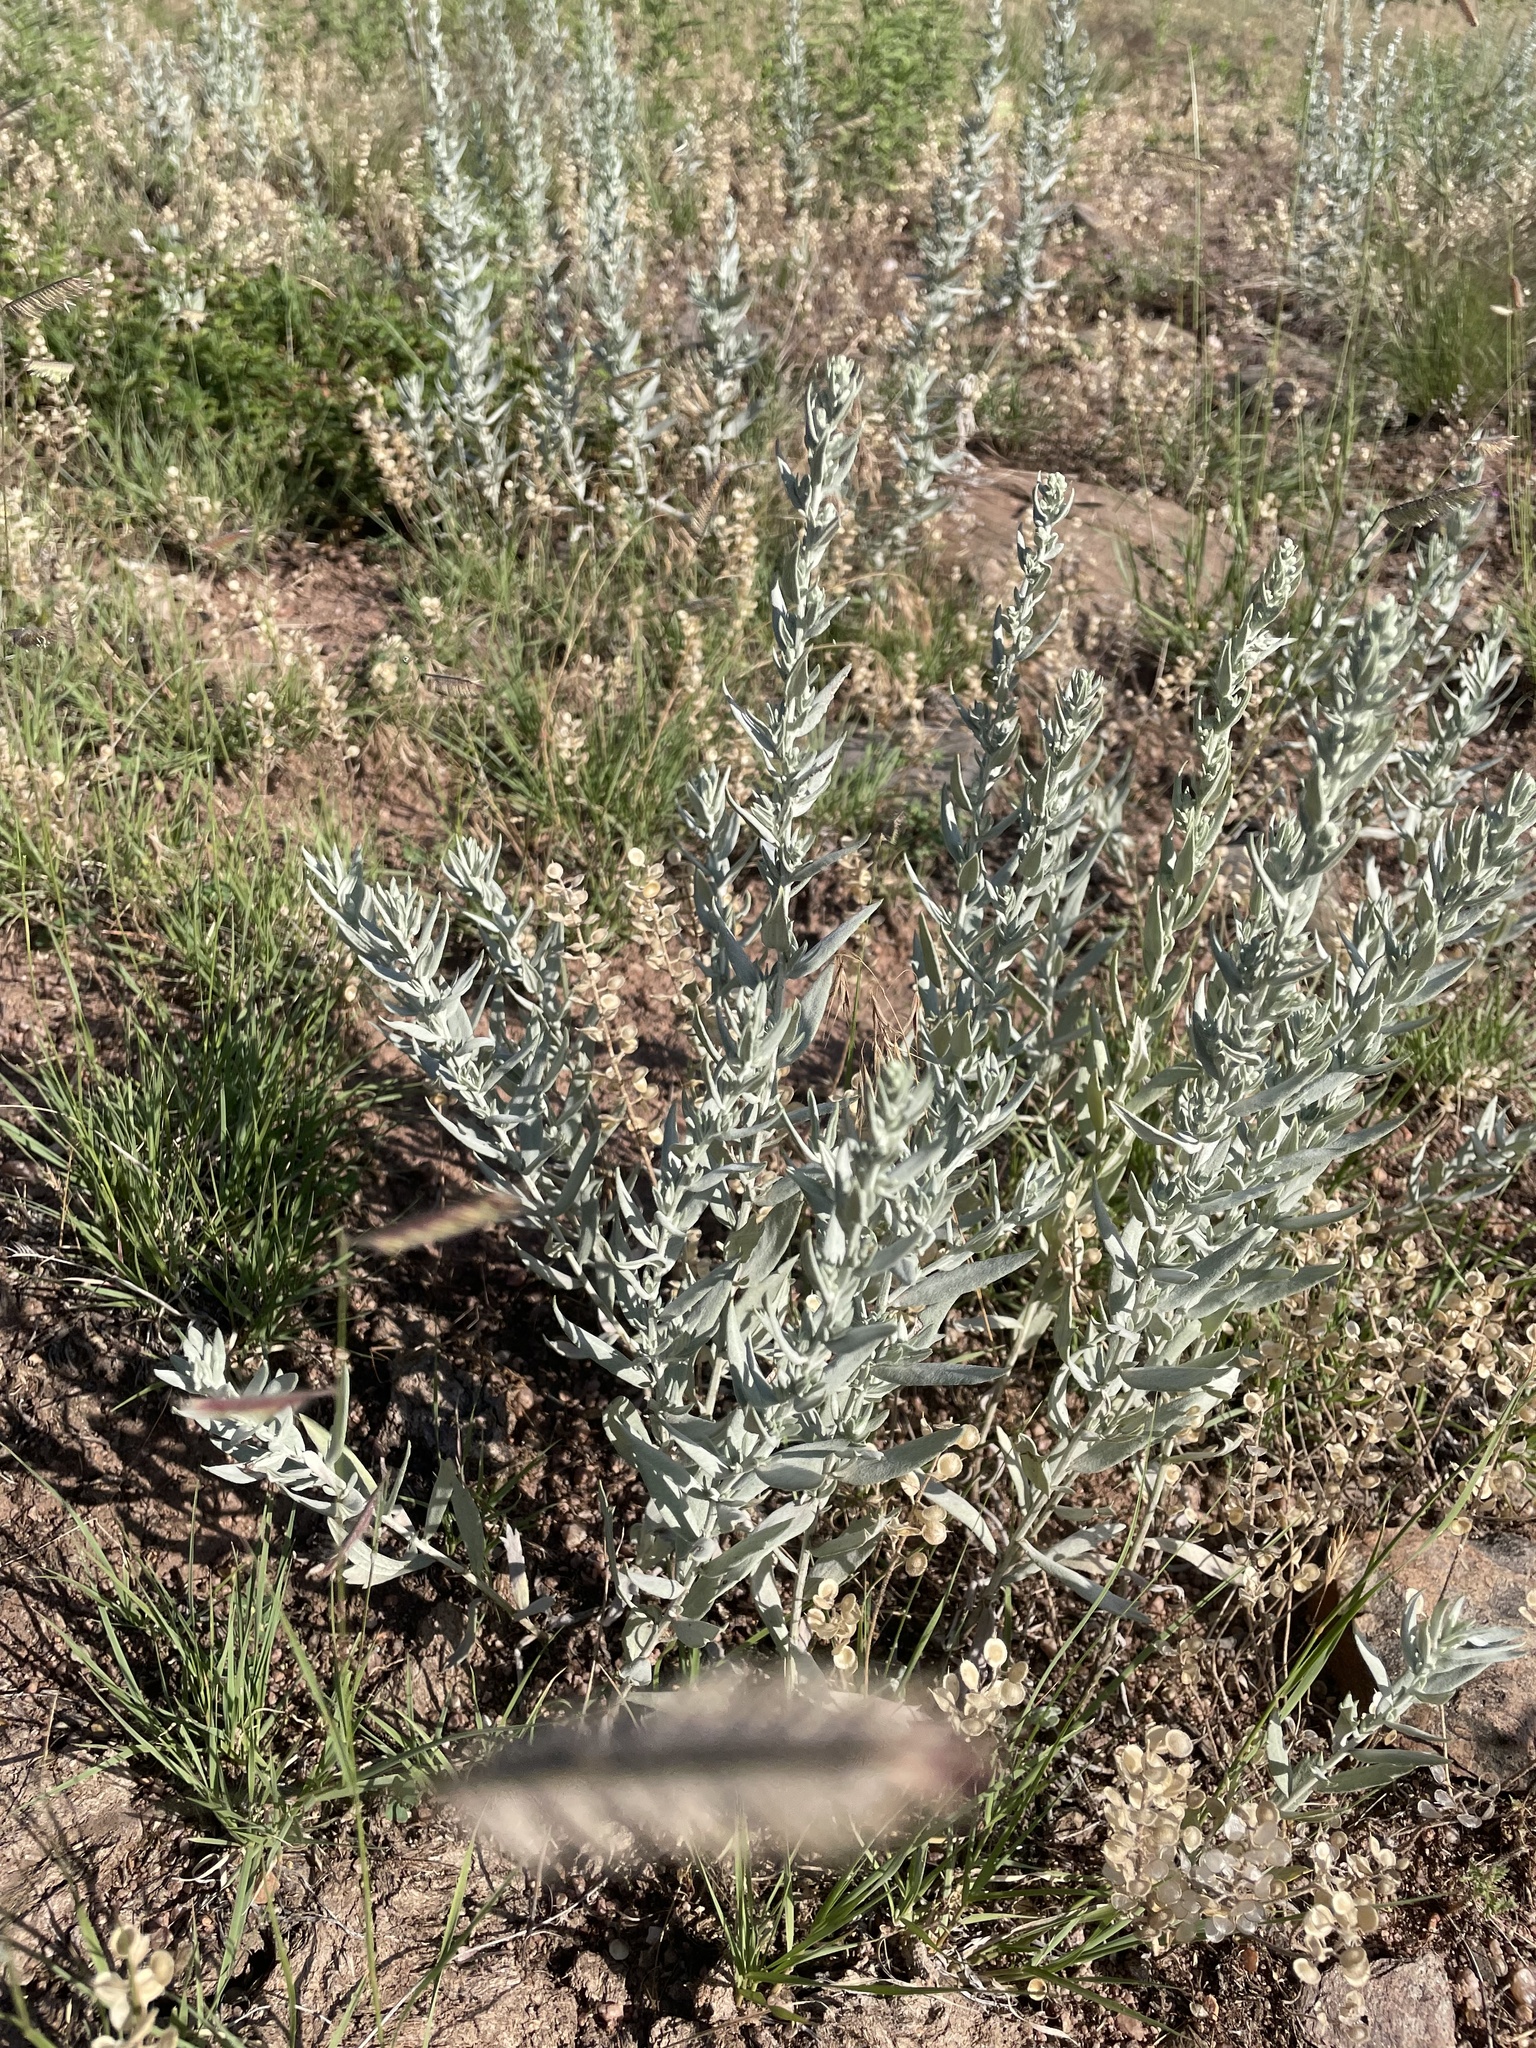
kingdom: Plantae
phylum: Tracheophyta
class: Magnoliopsida
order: Asterales
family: Asteraceae
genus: Artemisia
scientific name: Artemisia ludoviciana
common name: Western mugwort
